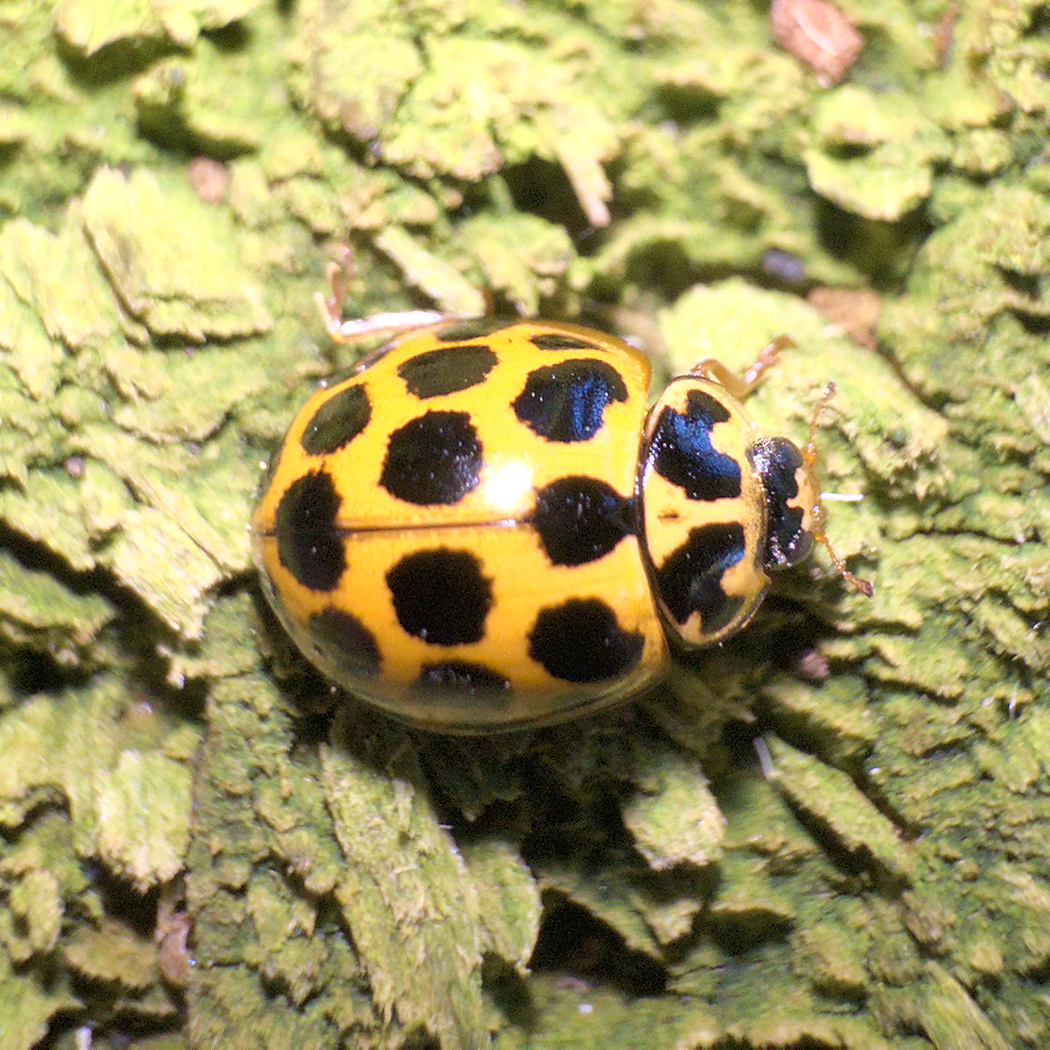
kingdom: Animalia
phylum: Arthropoda
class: Insecta
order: Coleoptera
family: Coccinellidae
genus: Harmonia
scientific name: Harmonia conformis
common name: Common spotted ladybird beetle
